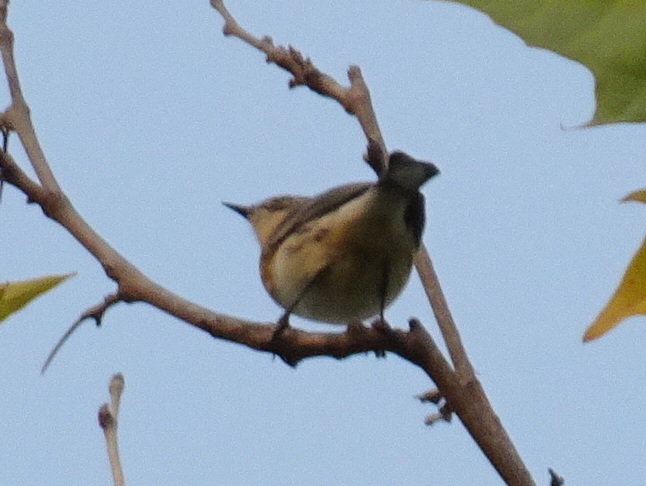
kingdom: Animalia
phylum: Chordata
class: Aves
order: Passeriformes
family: Parulidae
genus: Setophaga
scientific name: Setophaga coronata
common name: Myrtle warbler
